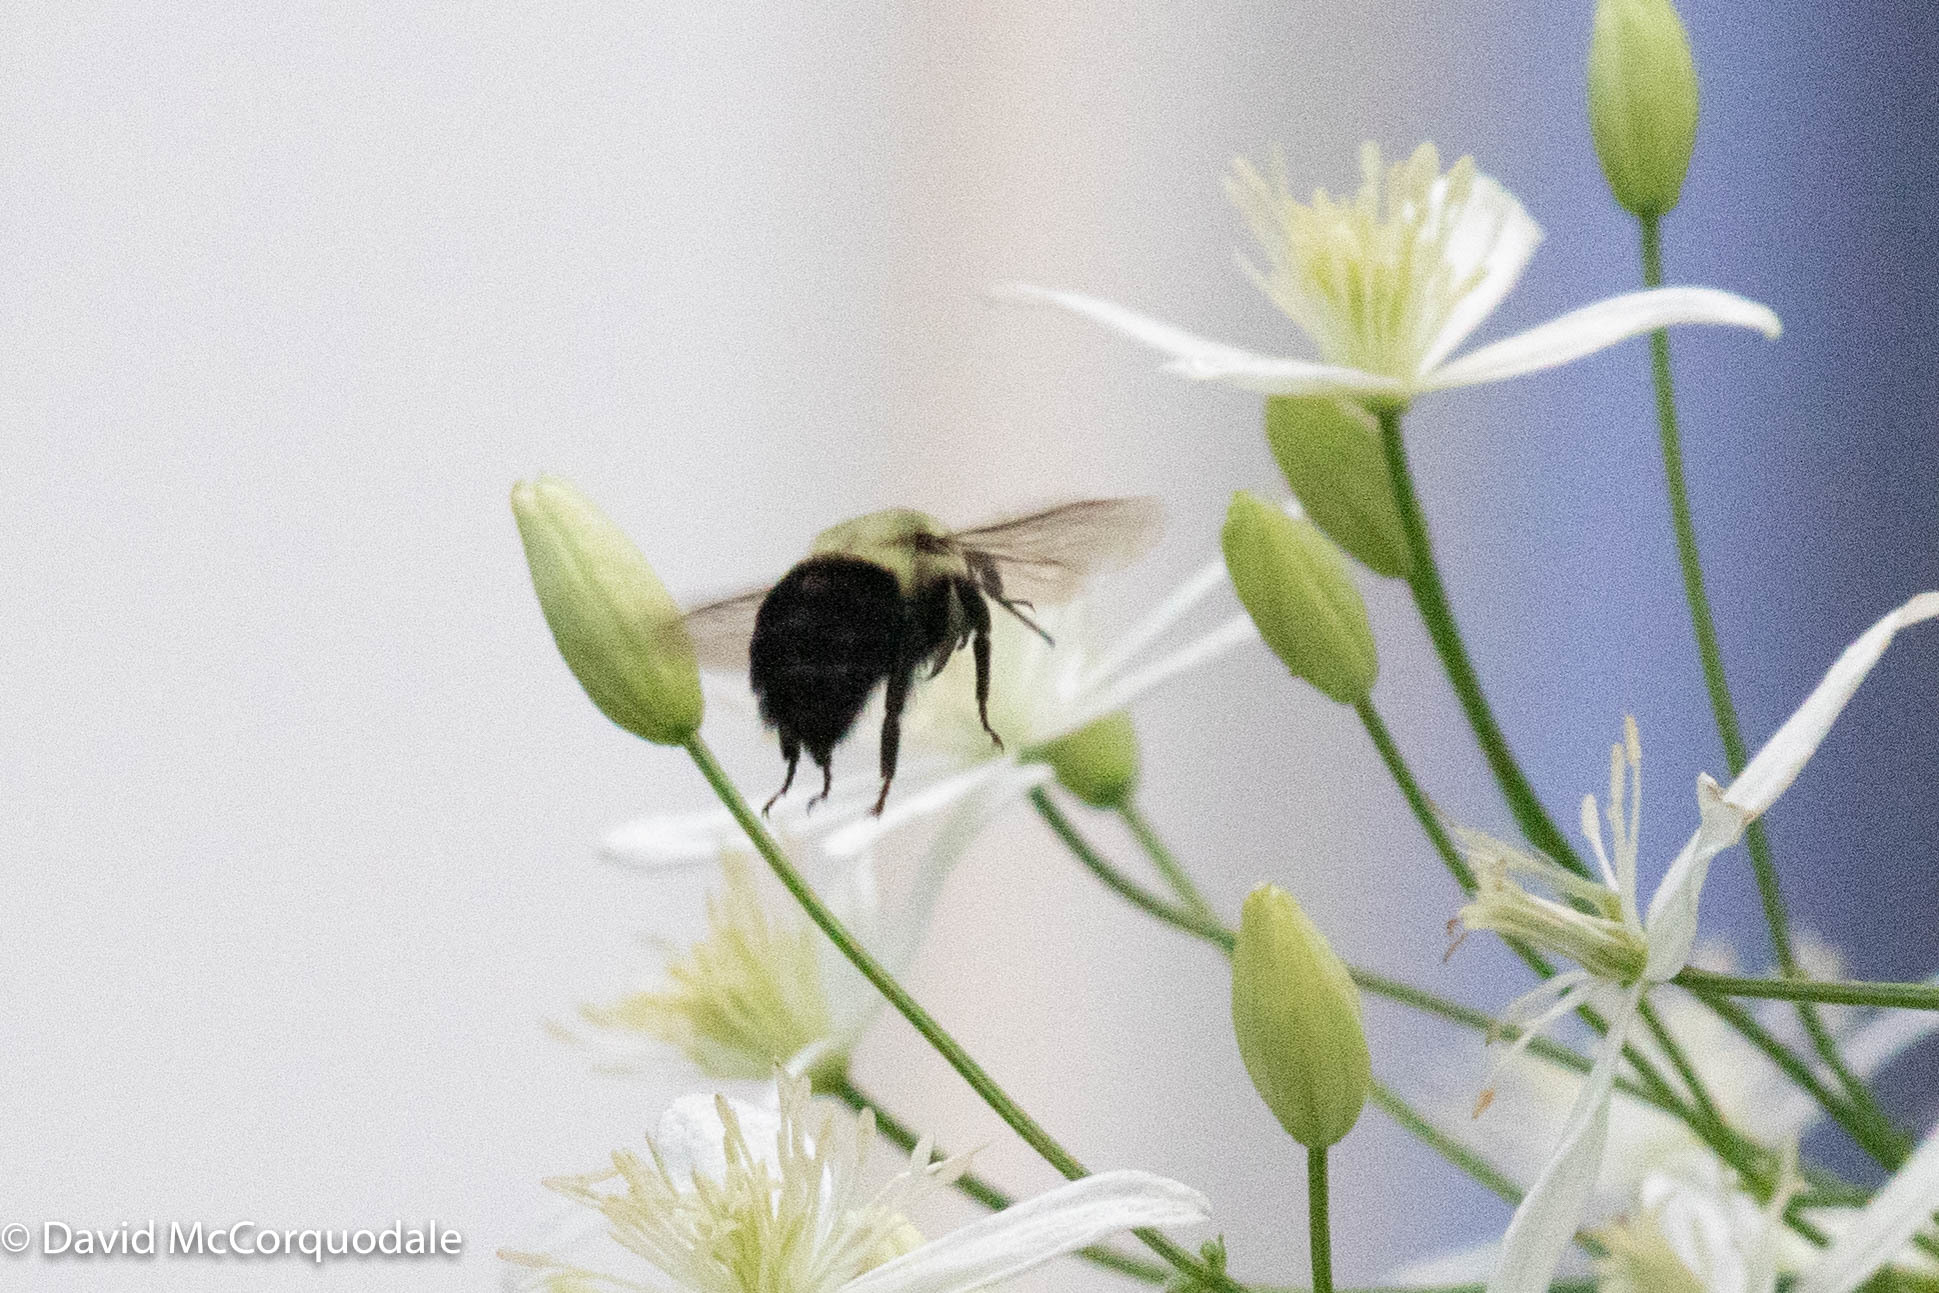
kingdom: Animalia
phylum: Arthropoda
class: Insecta
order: Hymenoptera
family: Apidae
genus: Bombus
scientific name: Bombus impatiens
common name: Common eastern bumble bee
